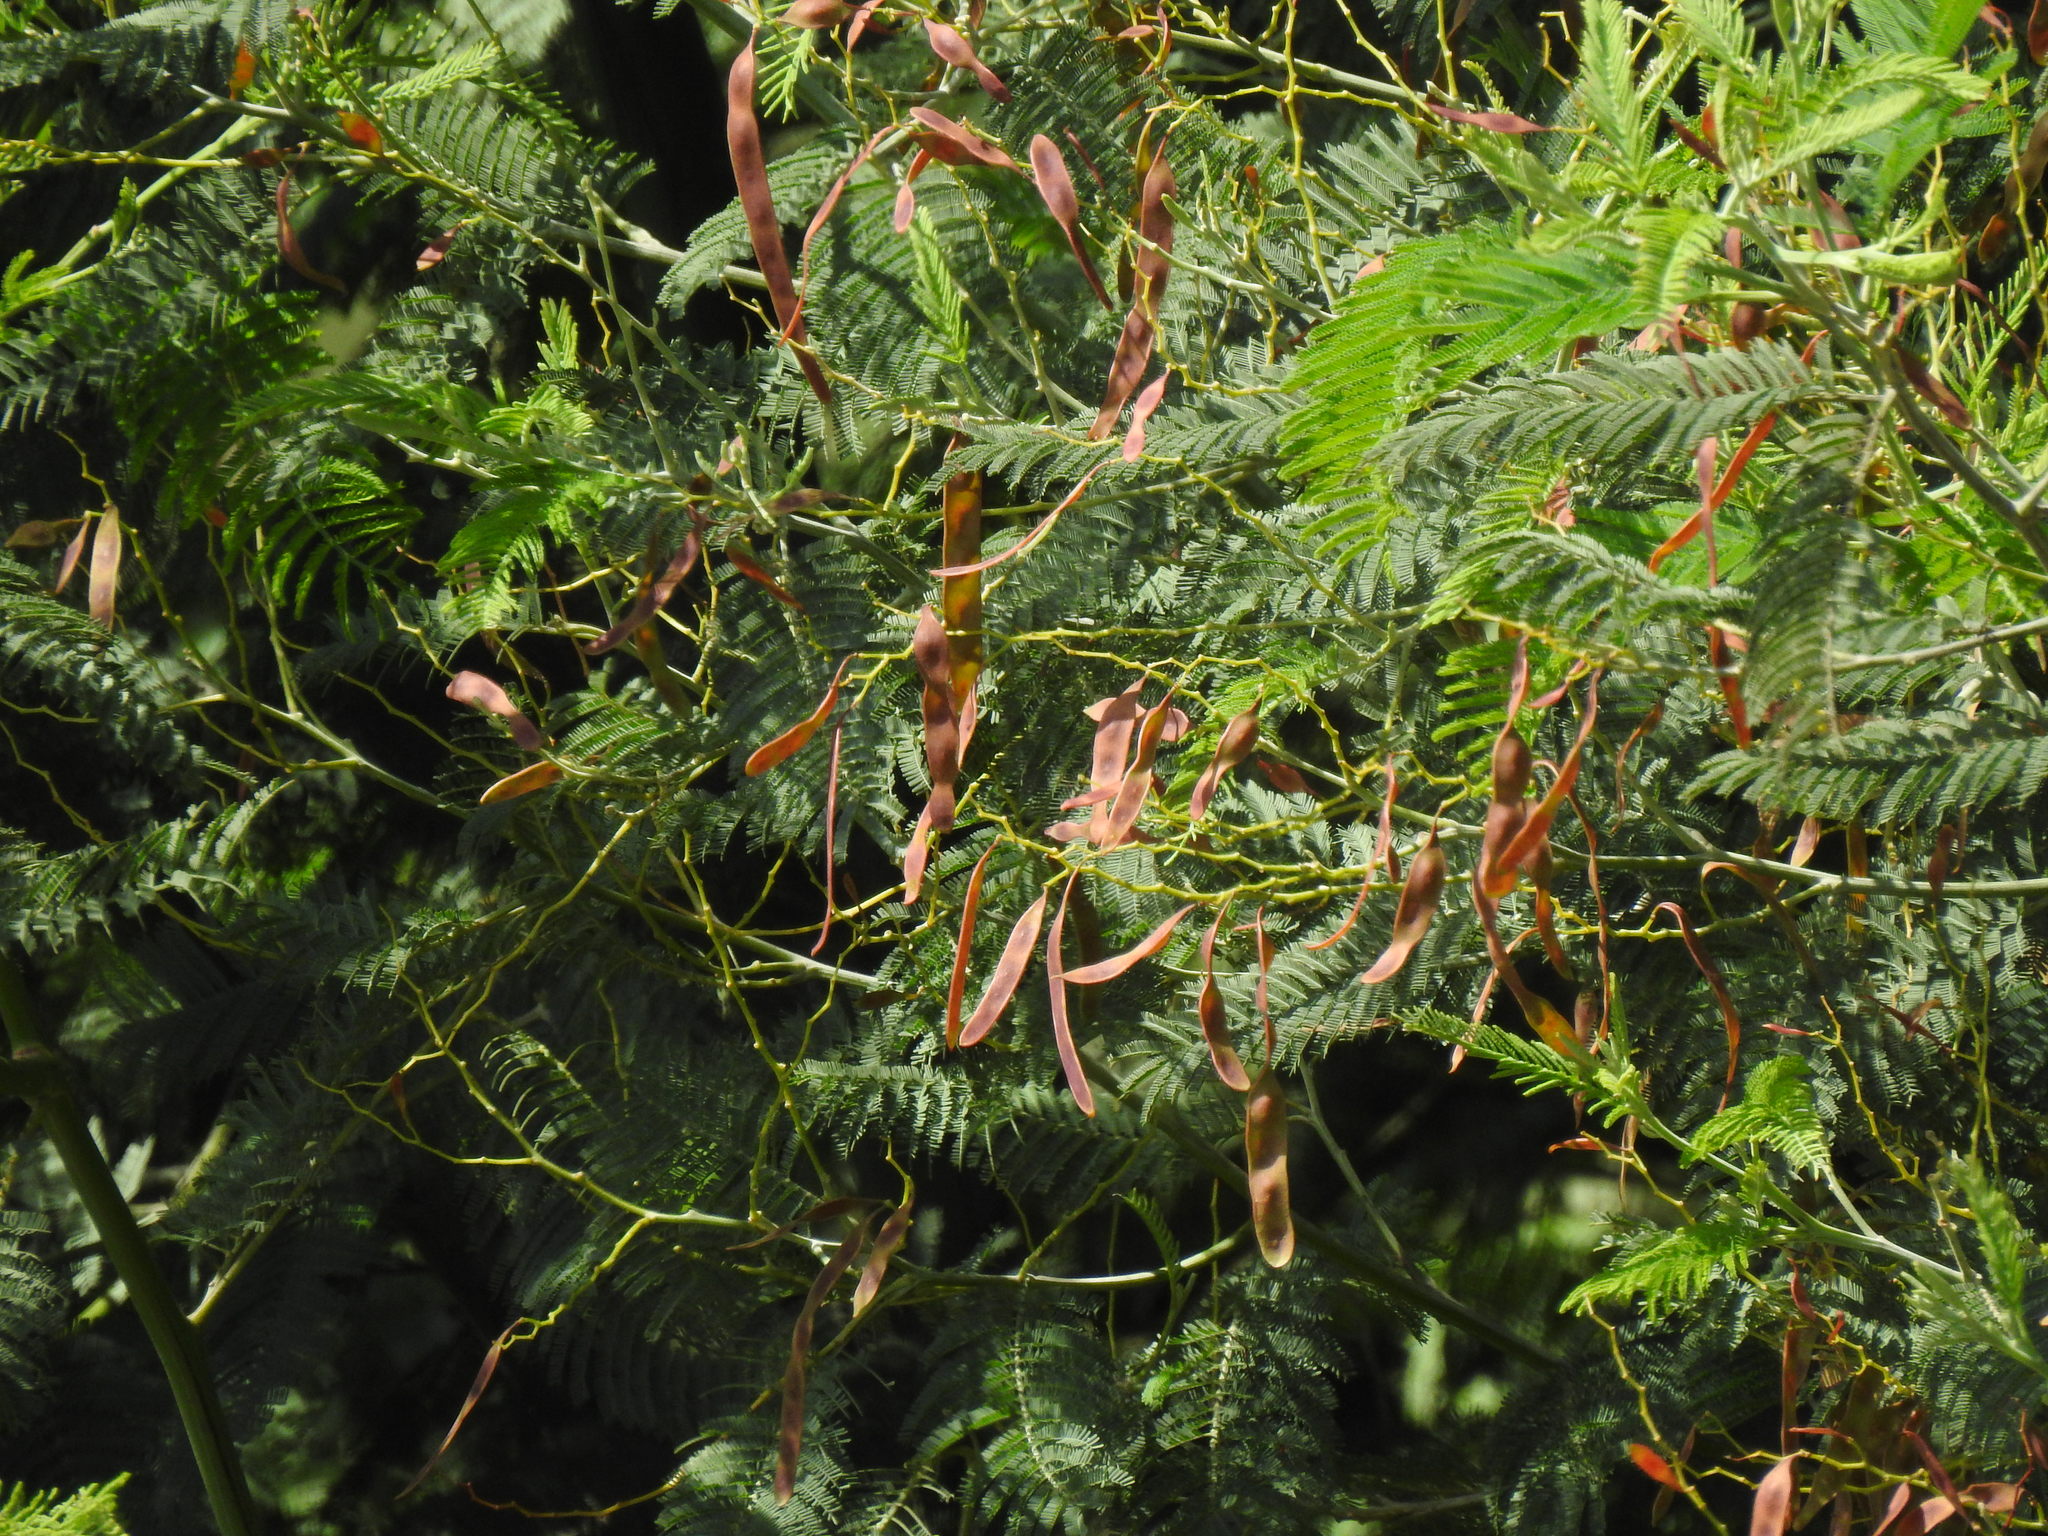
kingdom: Plantae
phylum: Tracheophyta
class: Magnoliopsida
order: Fabales
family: Fabaceae
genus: Acacia
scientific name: Acacia dealbata
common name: Silver wattle
